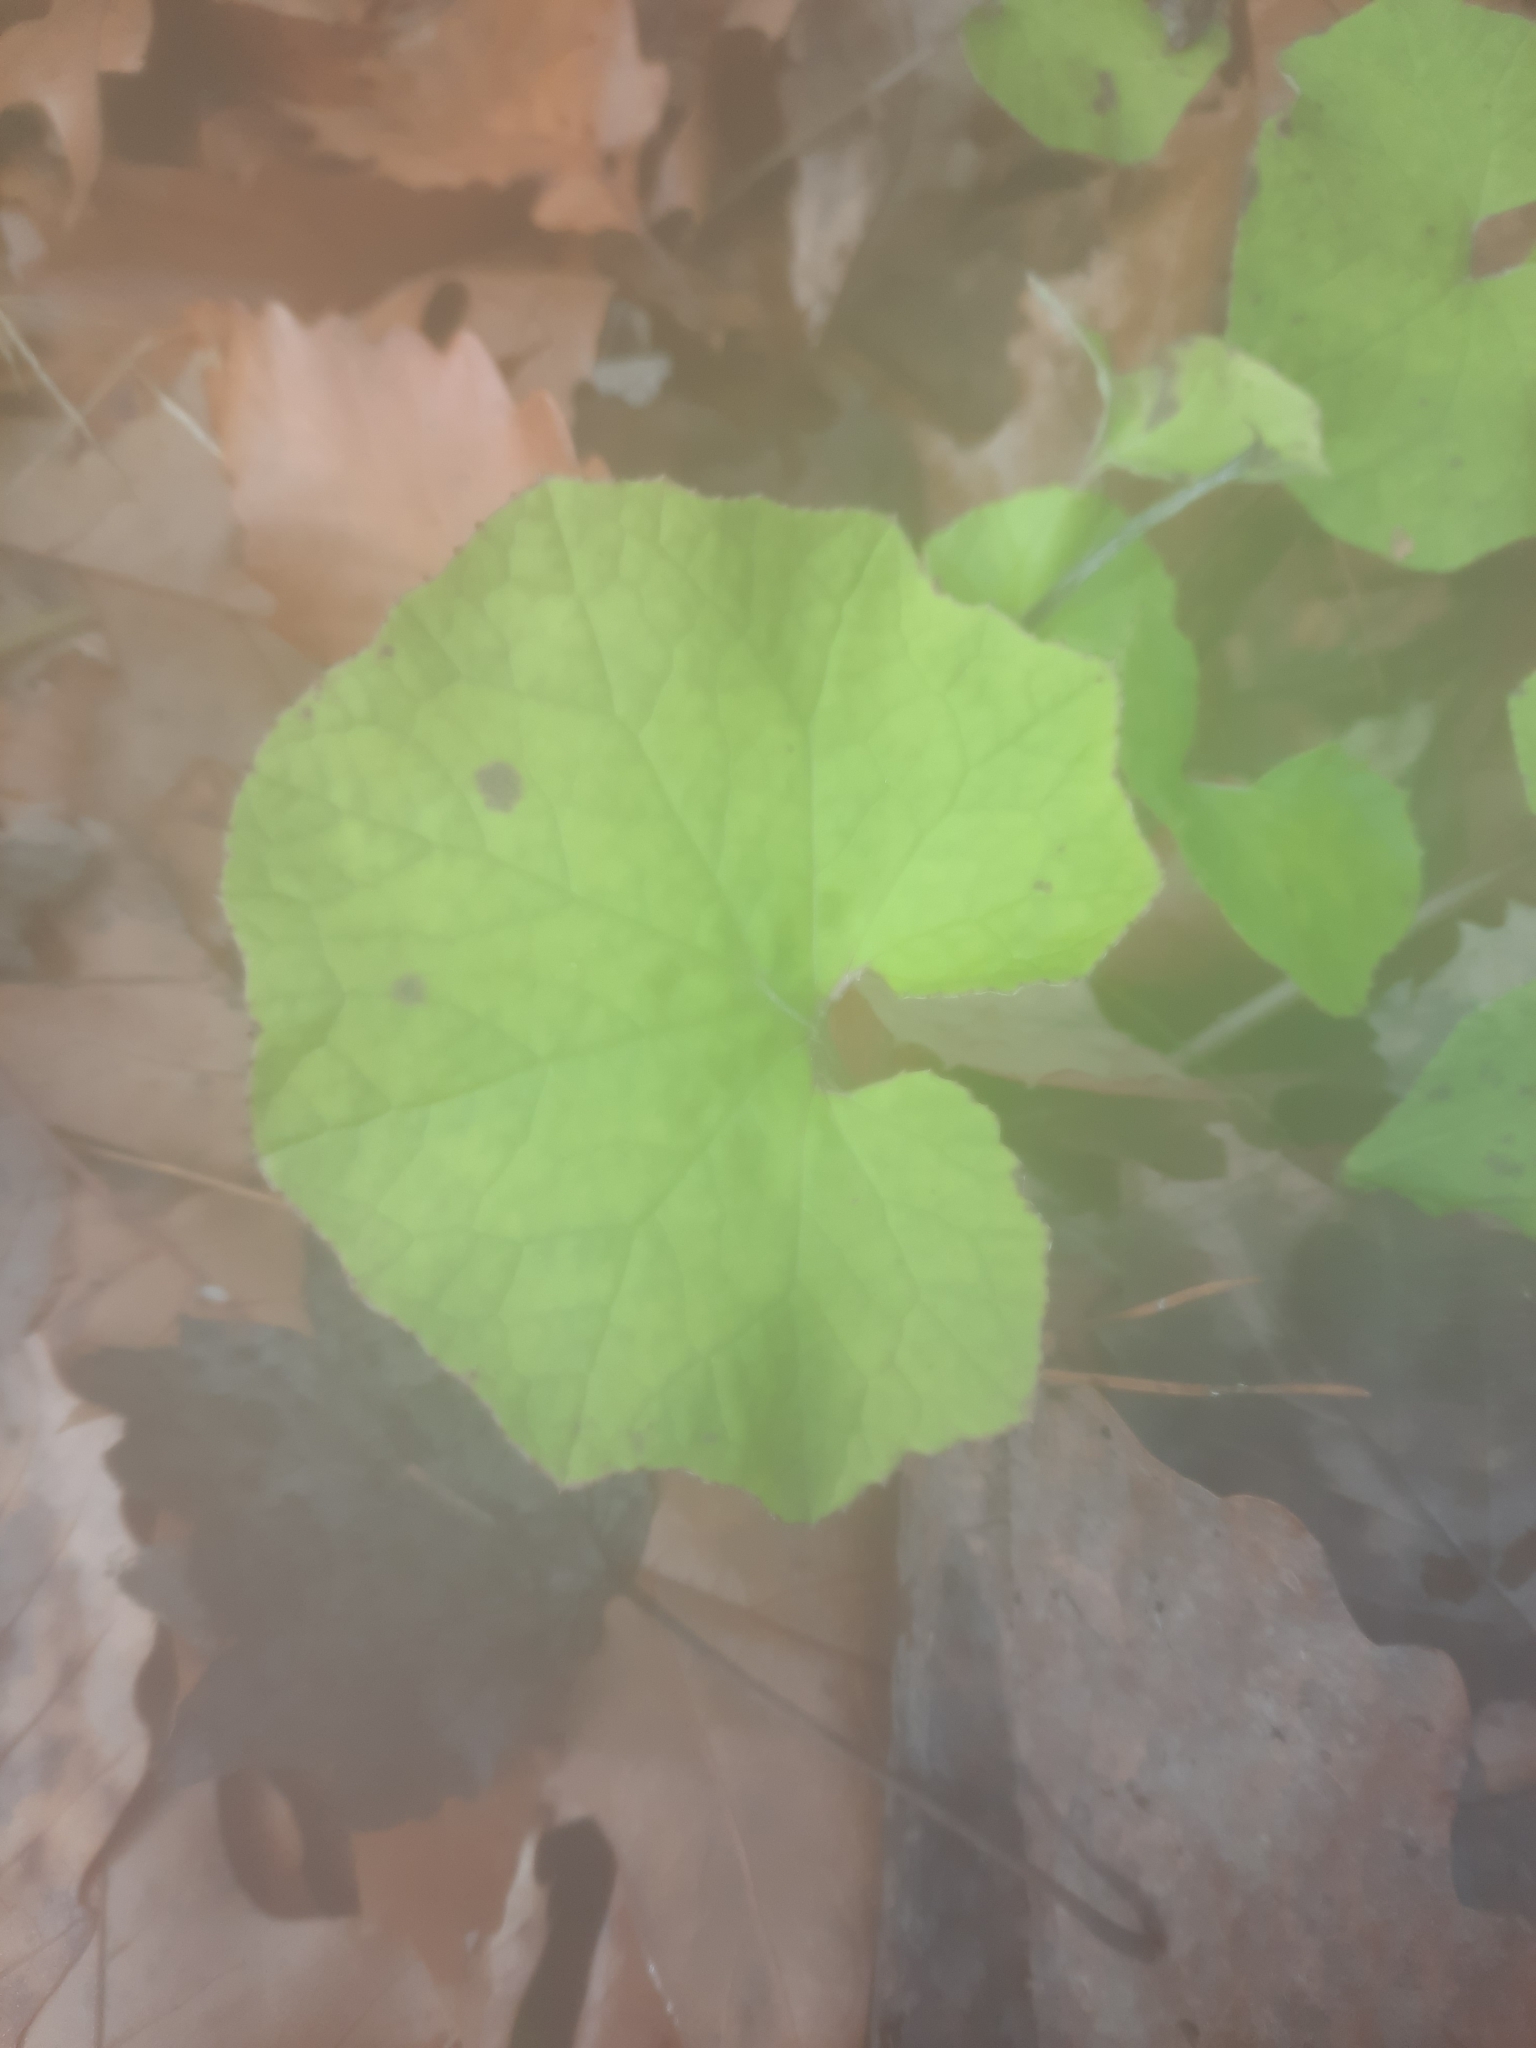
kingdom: Plantae
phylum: Tracheophyta
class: Magnoliopsida
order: Asterales
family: Asteraceae
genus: Tussilago
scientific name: Tussilago farfara
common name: Coltsfoot
